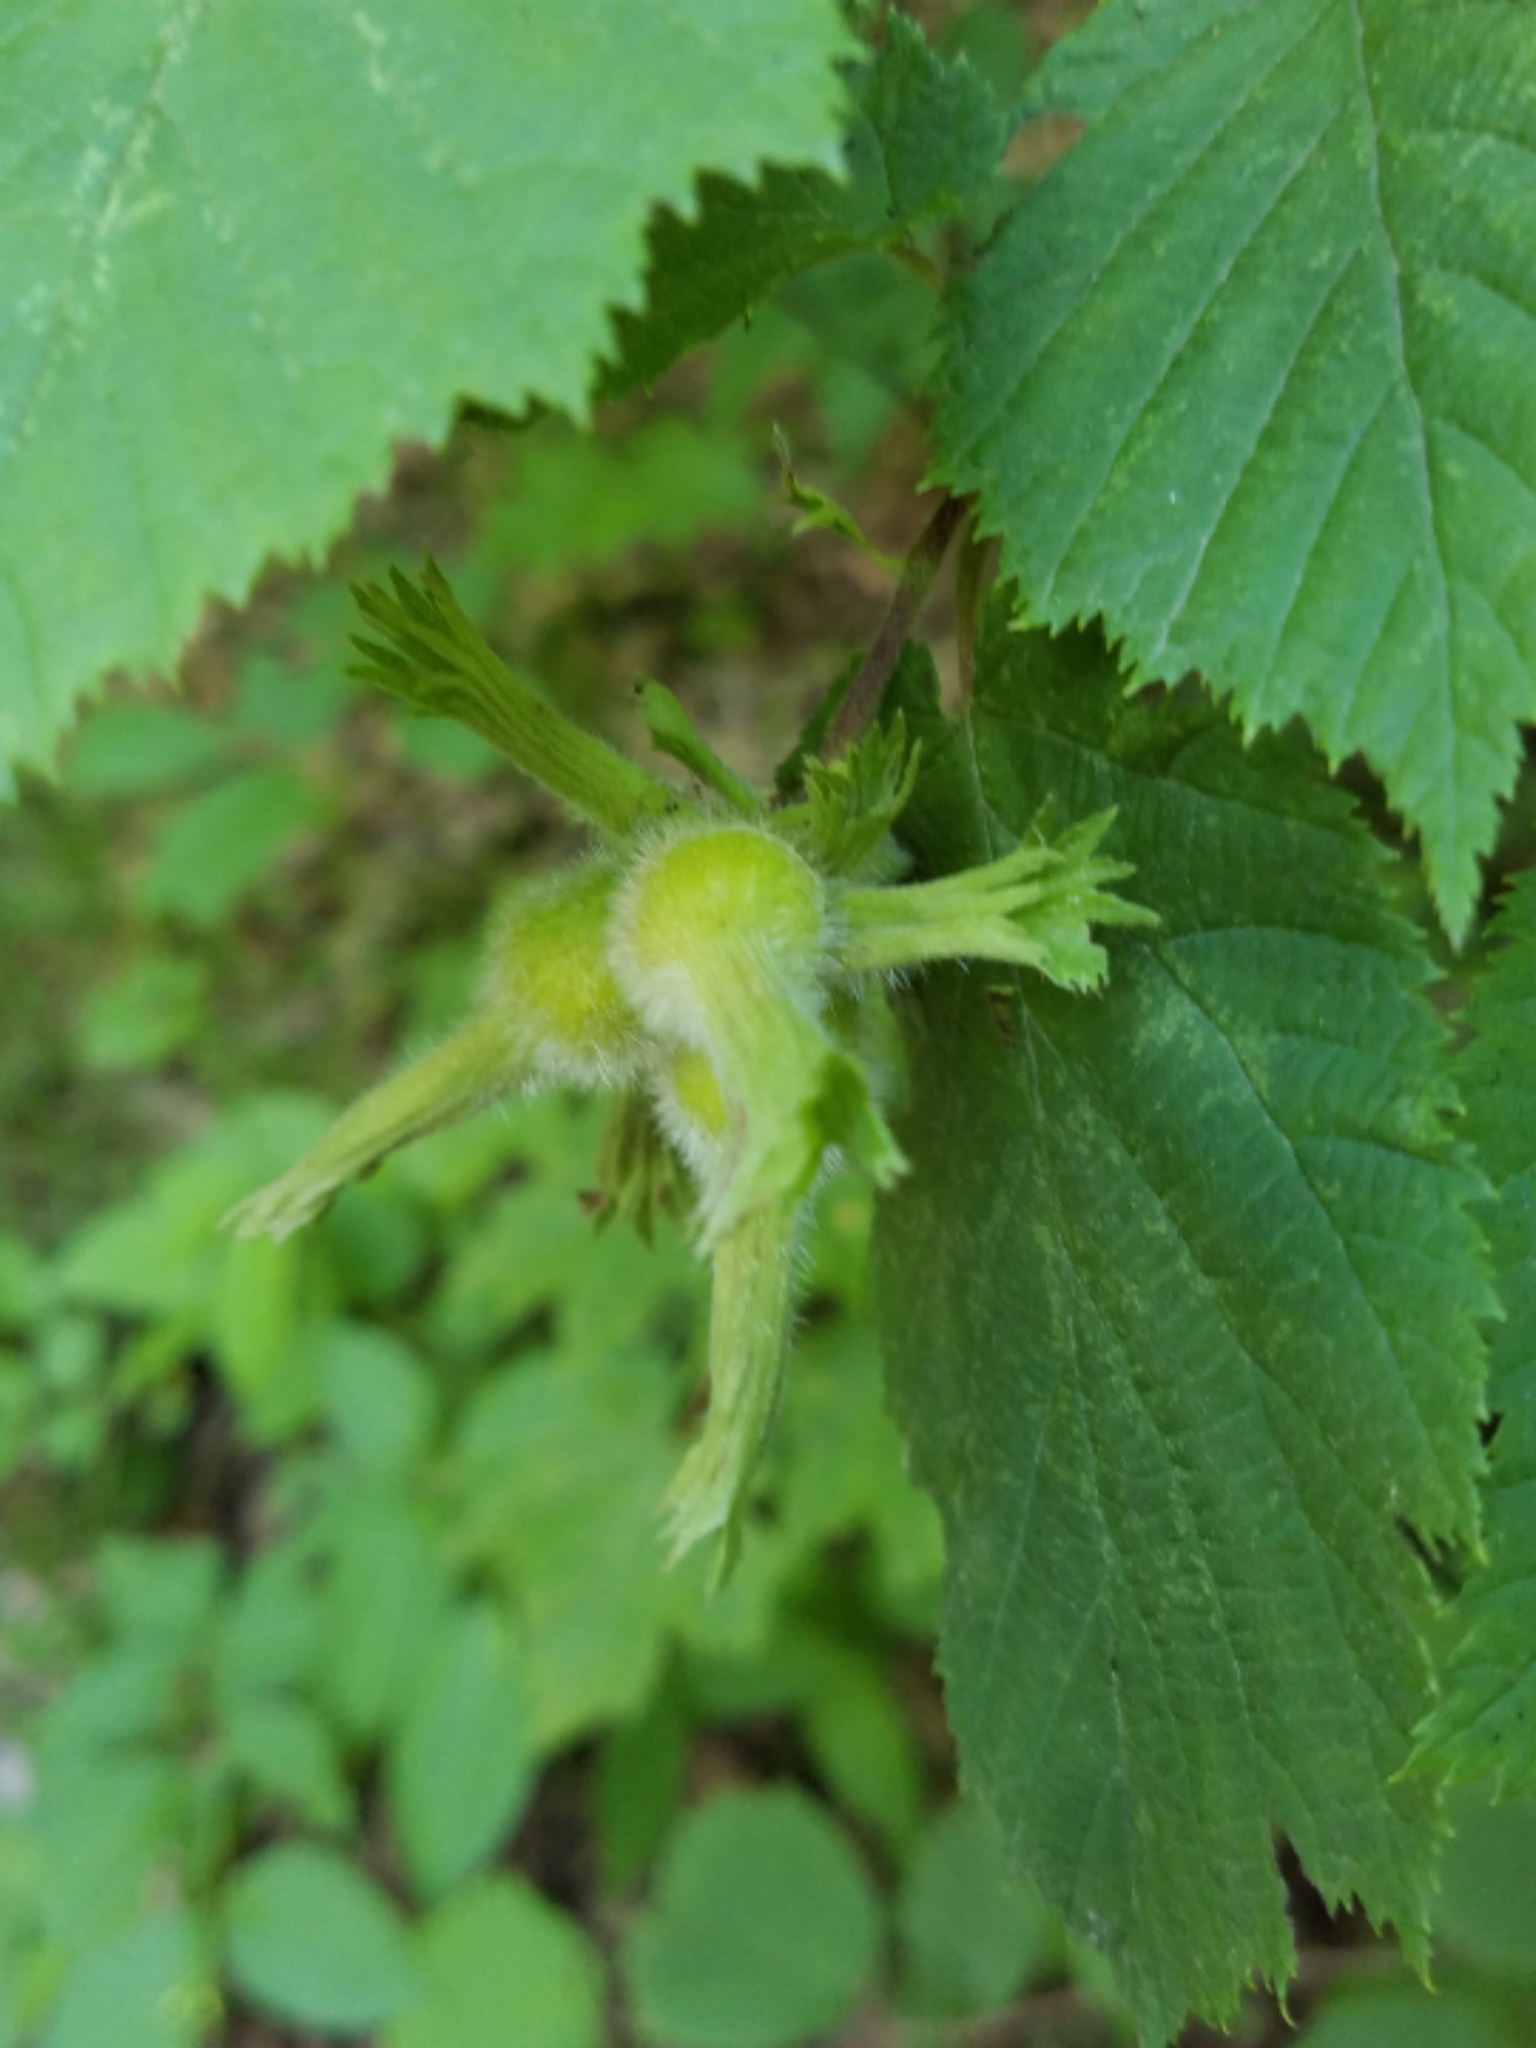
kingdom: Plantae
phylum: Tracheophyta
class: Magnoliopsida
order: Fagales
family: Betulaceae
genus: Corylus
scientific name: Corylus cornuta
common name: Beaked hazel
